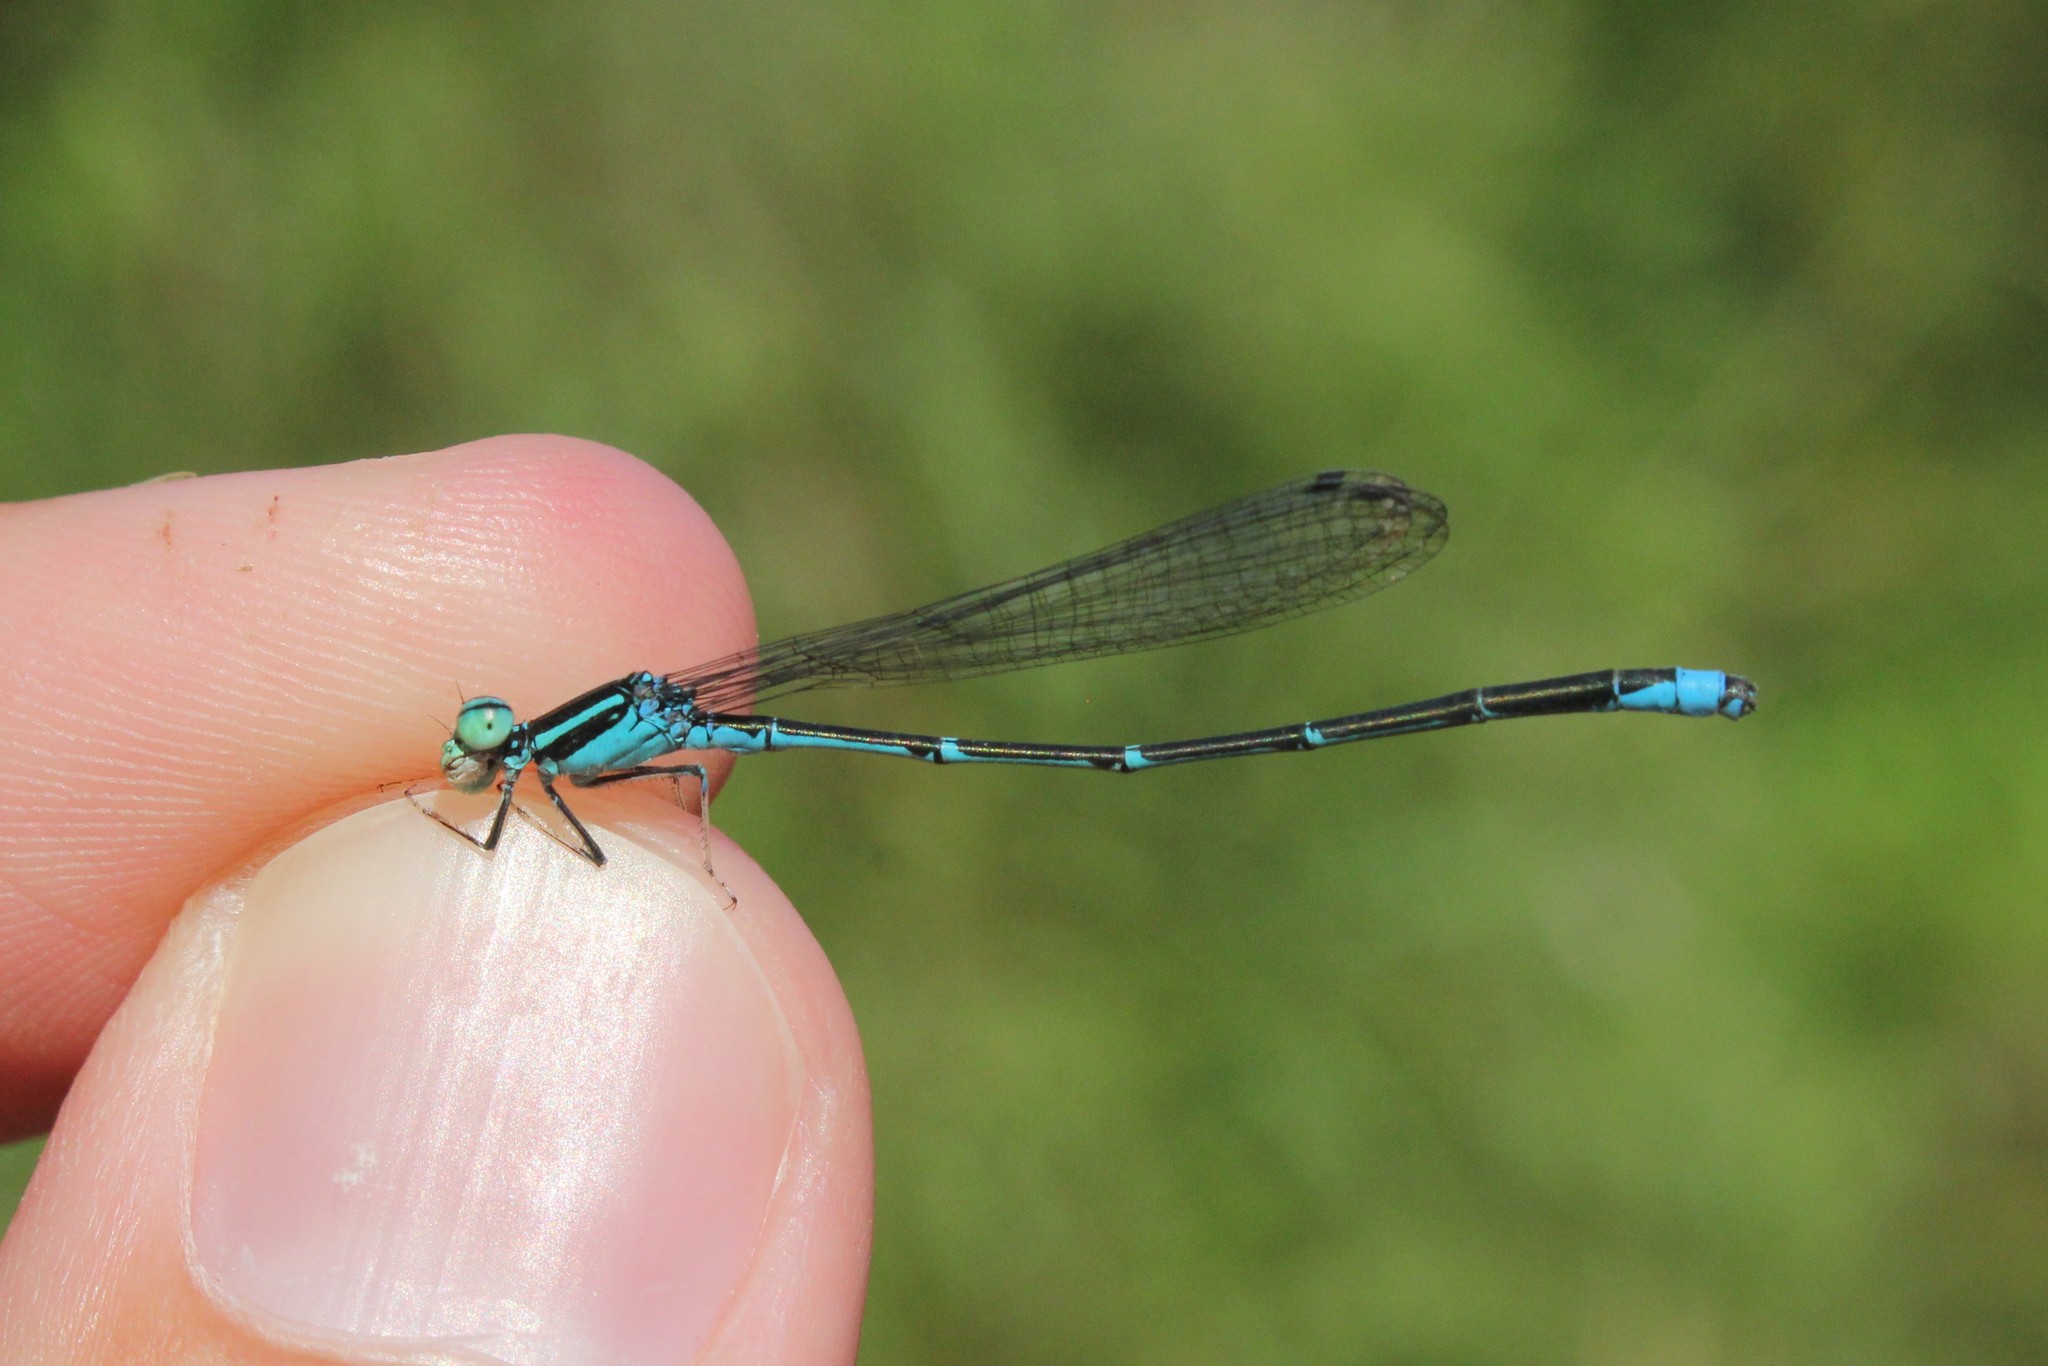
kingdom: Animalia
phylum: Arthropoda
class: Insecta
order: Odonata
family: Coenagrionidae
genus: Enallagma
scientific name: Enallagma exsulans
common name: Stream bluet
